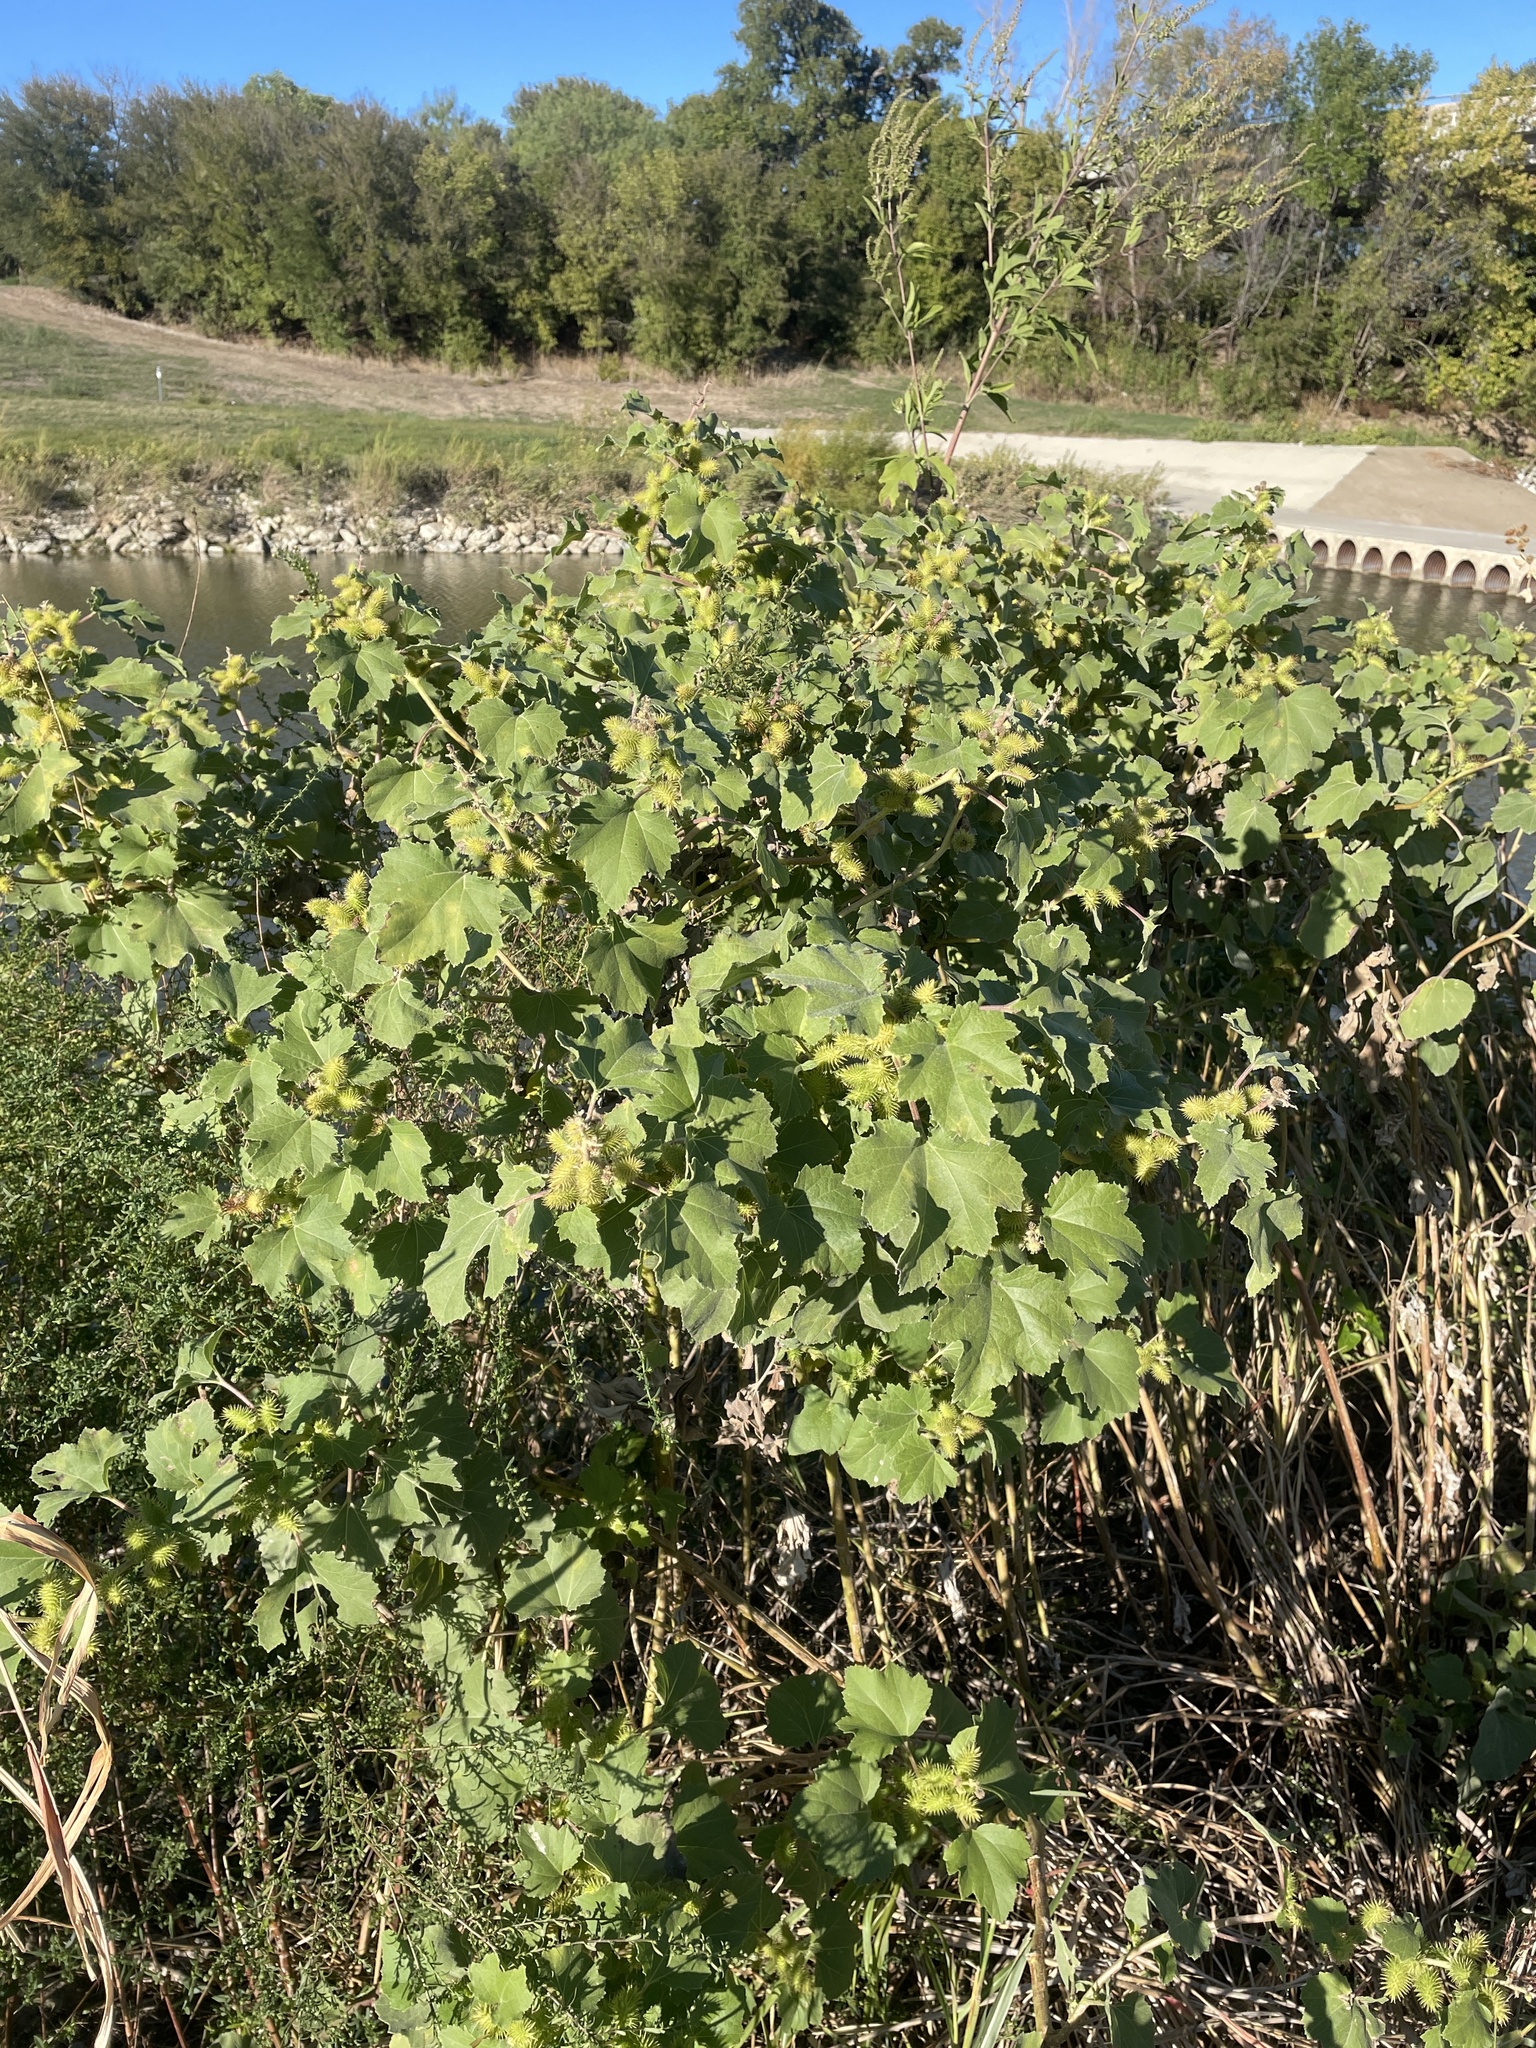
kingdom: Plantae
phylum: Tracheophyta
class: Magnoliopsida
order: Asterales
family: Asteraceae
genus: Xanthium
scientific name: Xanthium strumarium
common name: Rough cocklebur
